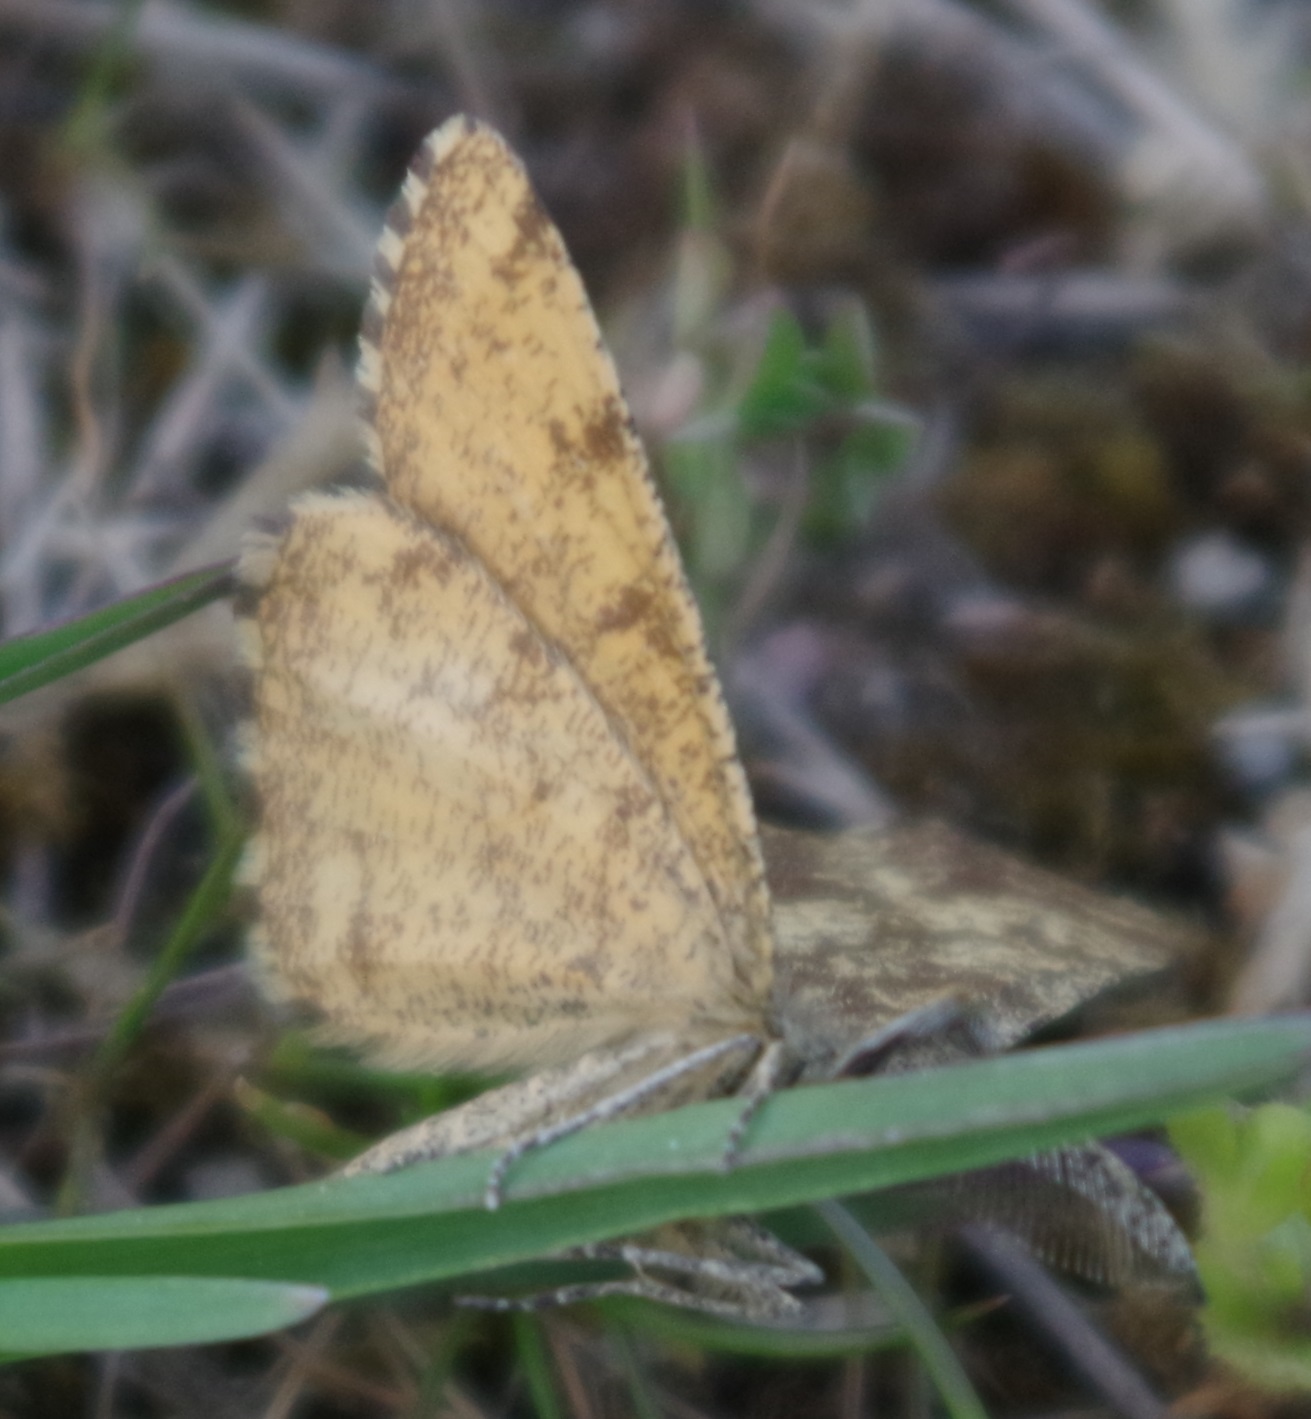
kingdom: Animalia
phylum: Arthropoda
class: Insecta
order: Lepidoptera
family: Geometridae
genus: Ematurga
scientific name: Ematurga atomaria
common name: Common heath
